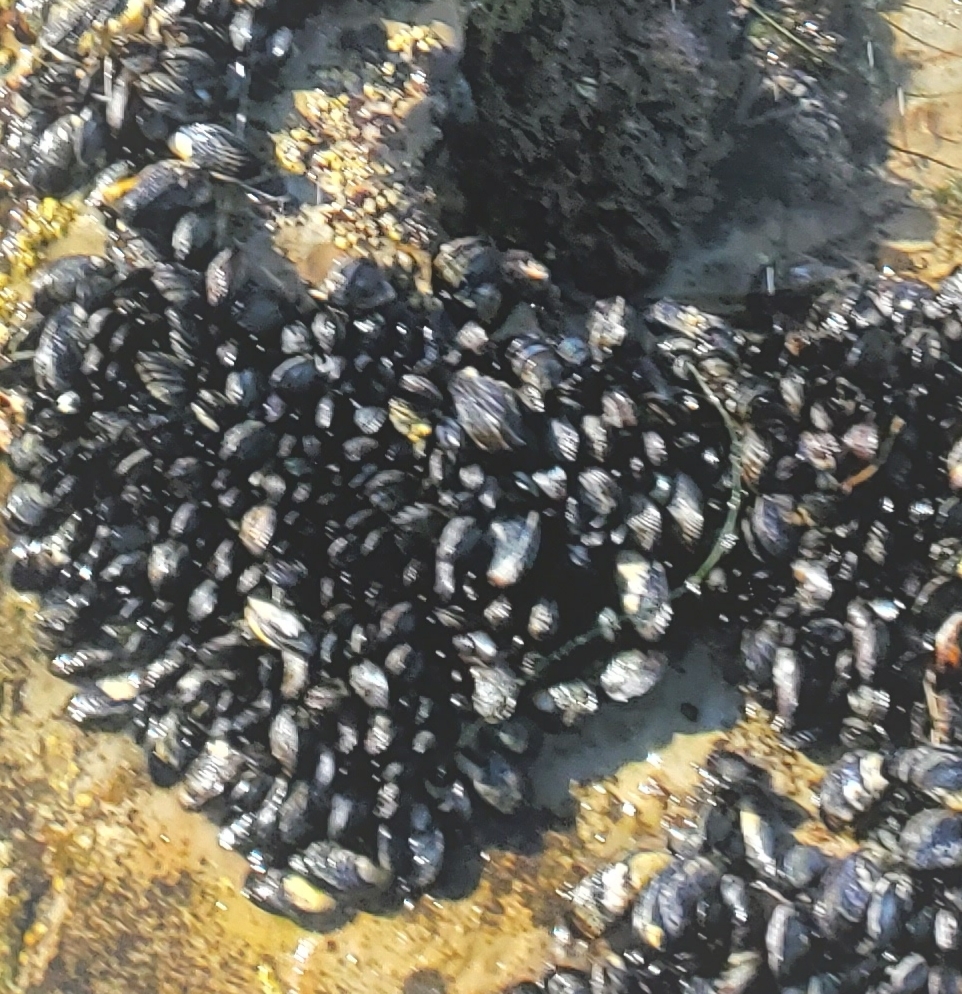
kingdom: Animalia
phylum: Mollusca
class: Bivalvia
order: Mytilida
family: Mytilidae
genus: Mytilus
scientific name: Mytilus californianus
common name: California mussel
